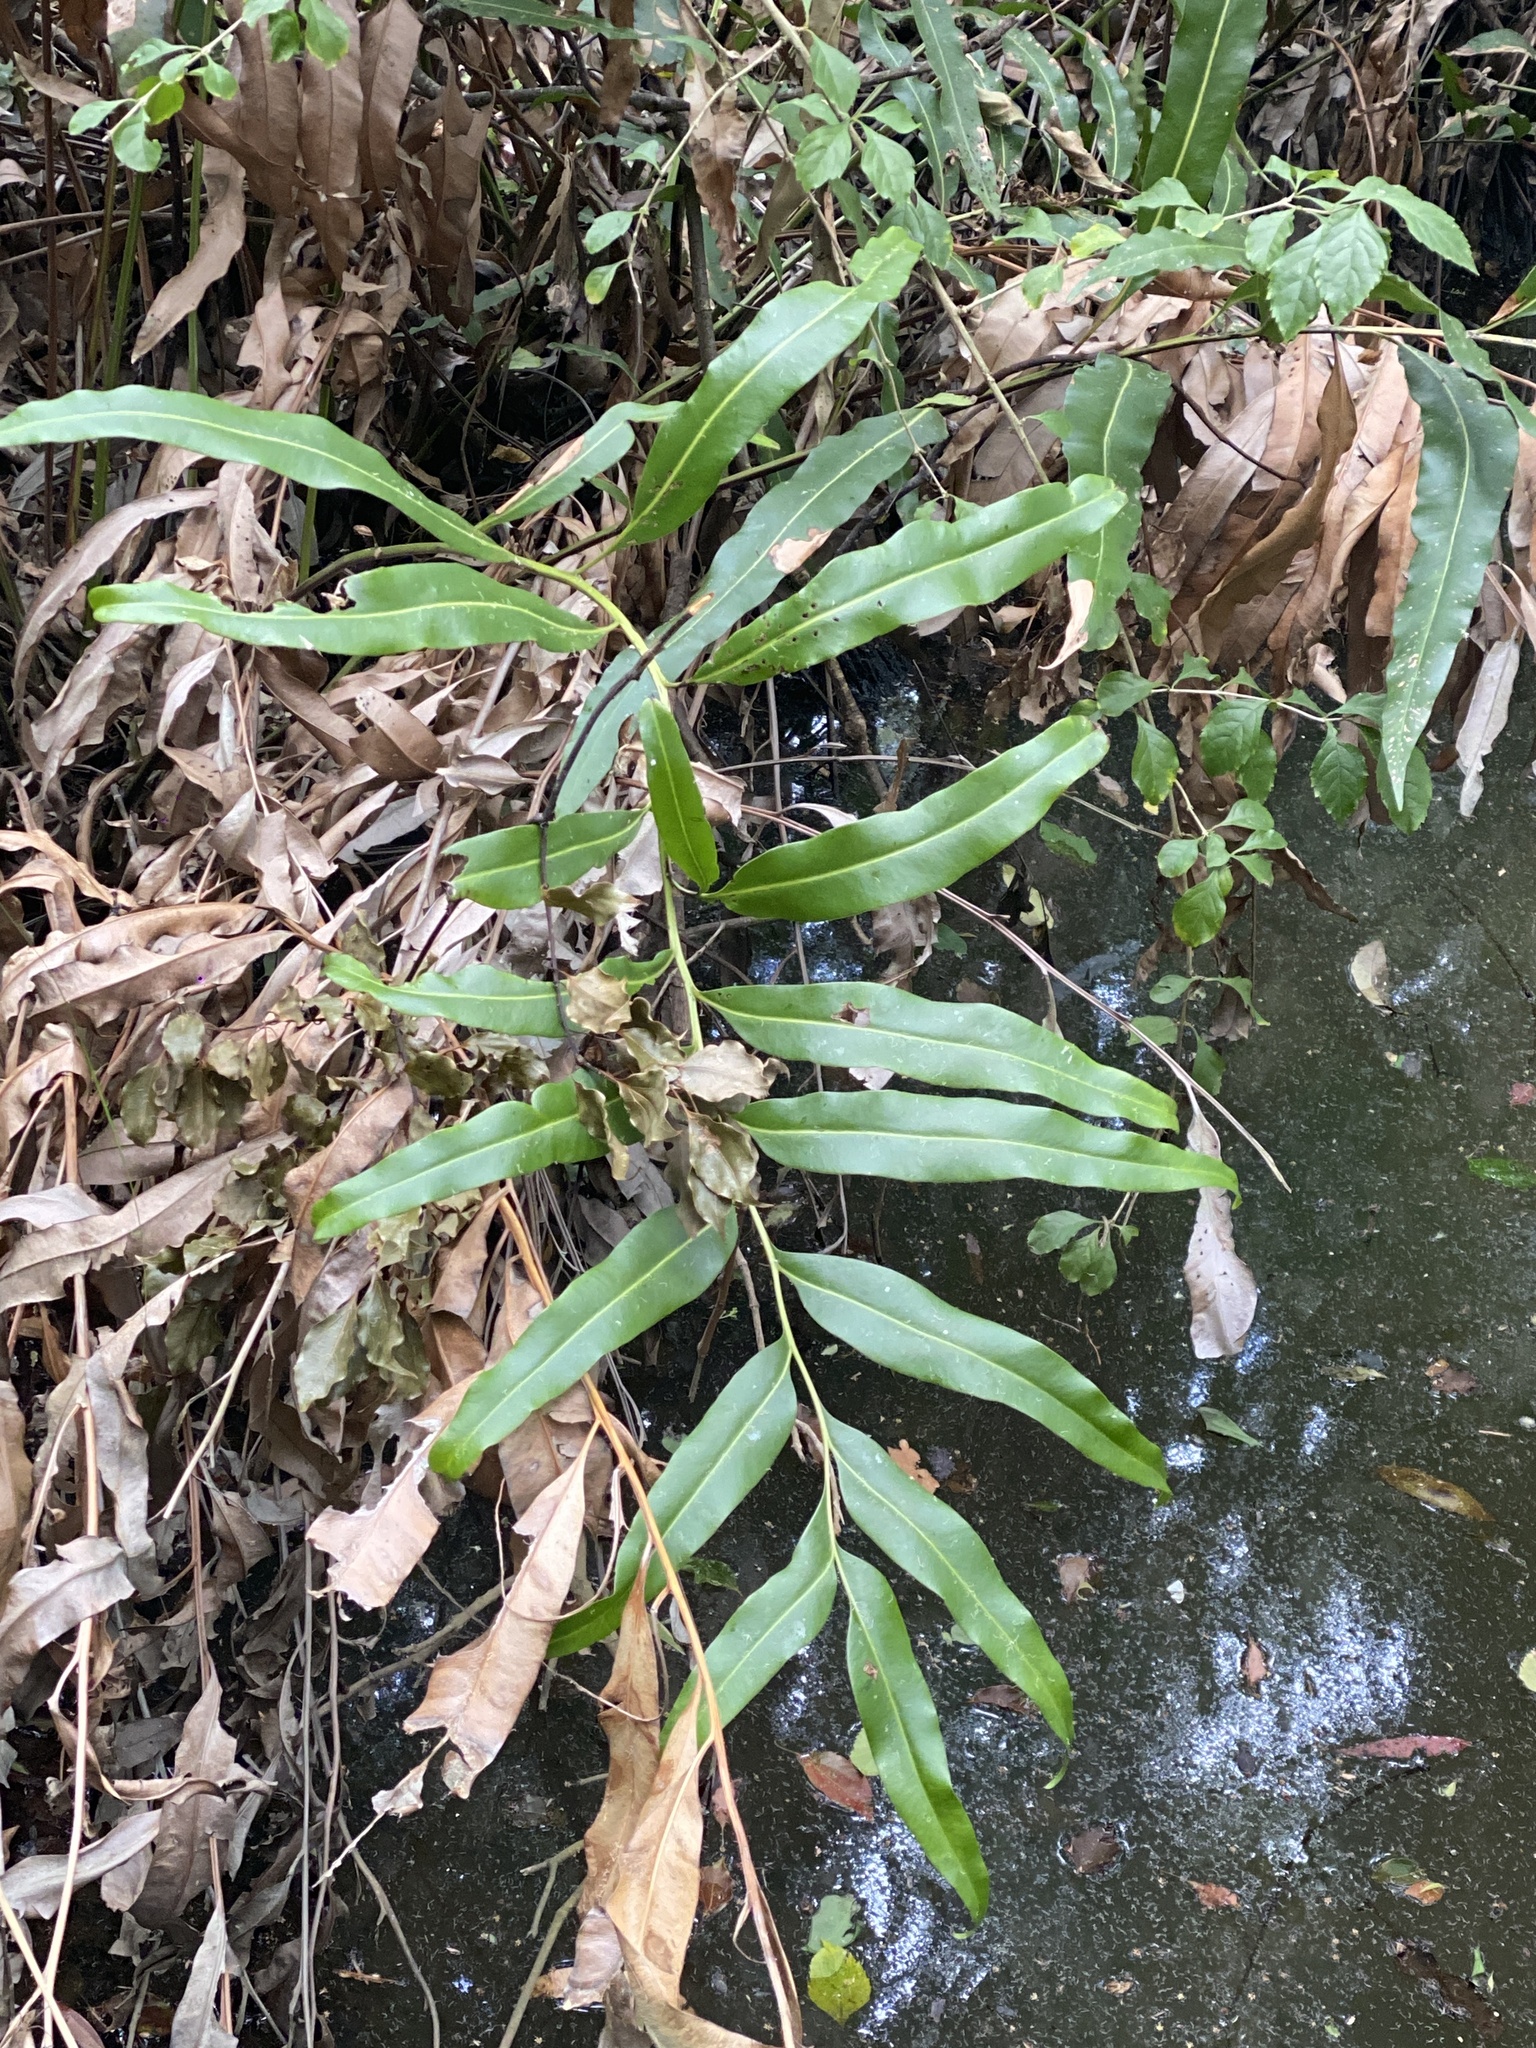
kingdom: Plantae
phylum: Tracheophyta
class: Polypodiopsida
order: Polypodiales
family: Pteridaceae
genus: Acrostichum
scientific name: Acrostichum speciosum
